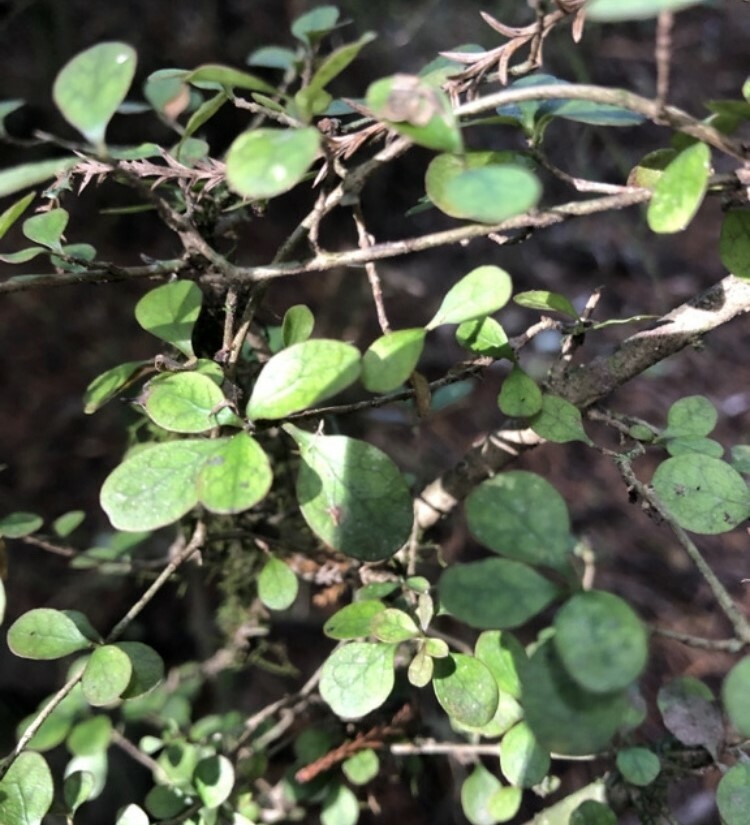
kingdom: Plantae
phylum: Tracheophyta
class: Magnoliopsida
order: Gentianales
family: Rubiaceae
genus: Coprosma
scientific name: Coprosma tenuicaulis
